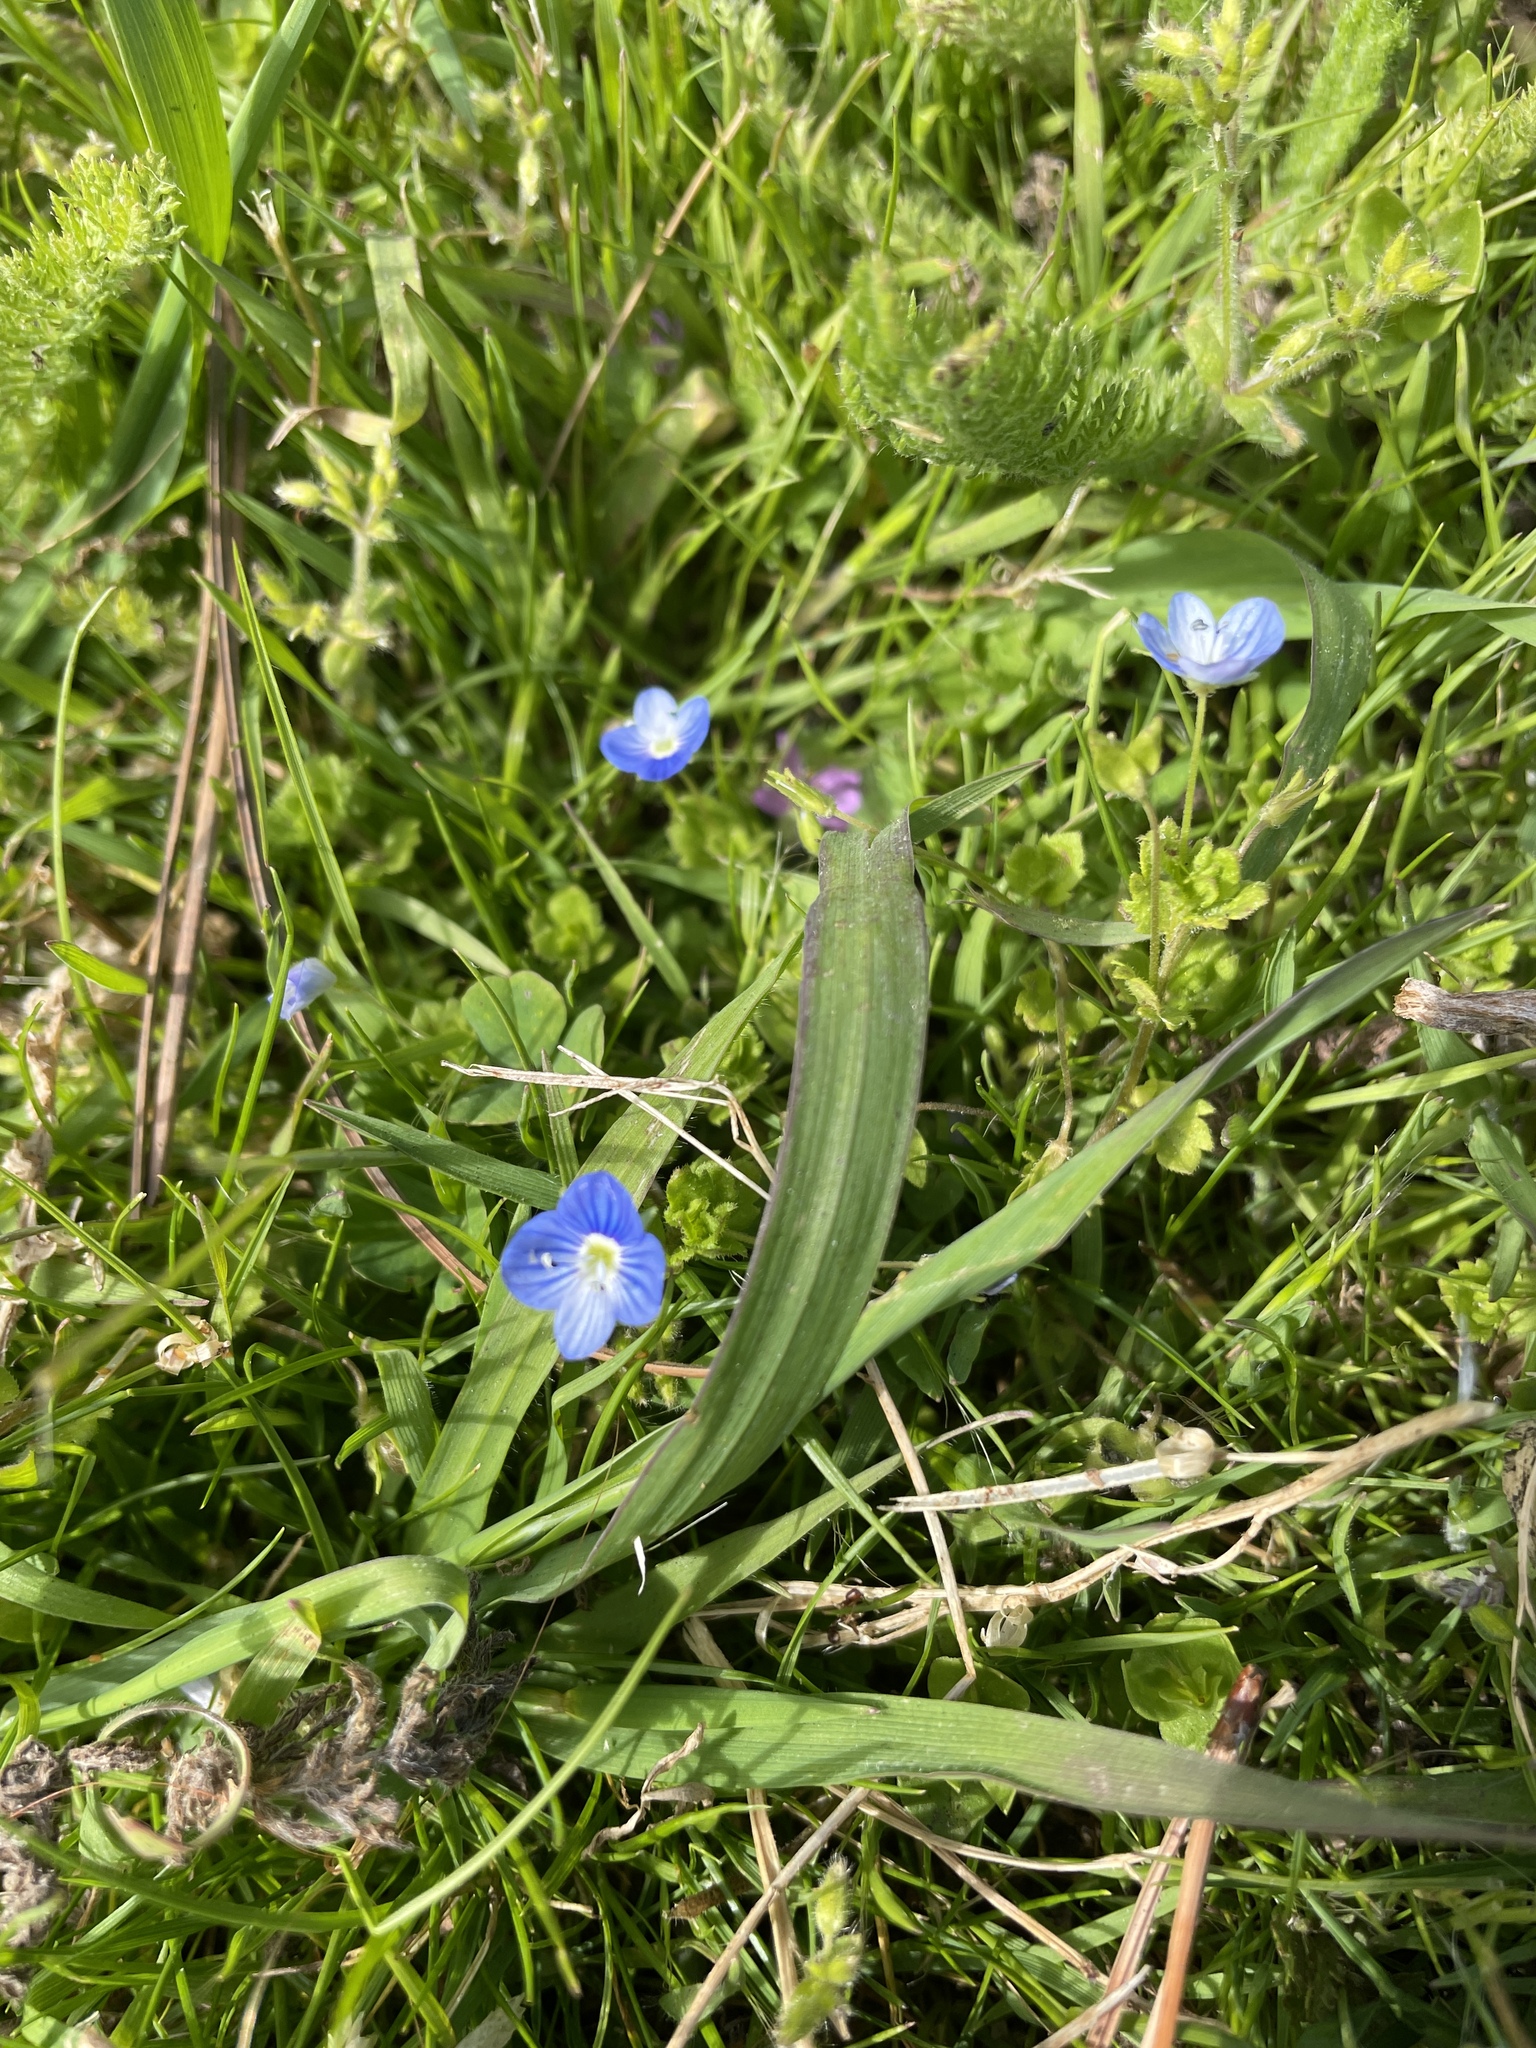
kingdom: Plantae
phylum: Tracheophyta
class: Magnoliopsida
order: Lamiales
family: Plantaginaceae
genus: Veronica
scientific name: Veronica persica
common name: Common field-speedwell
